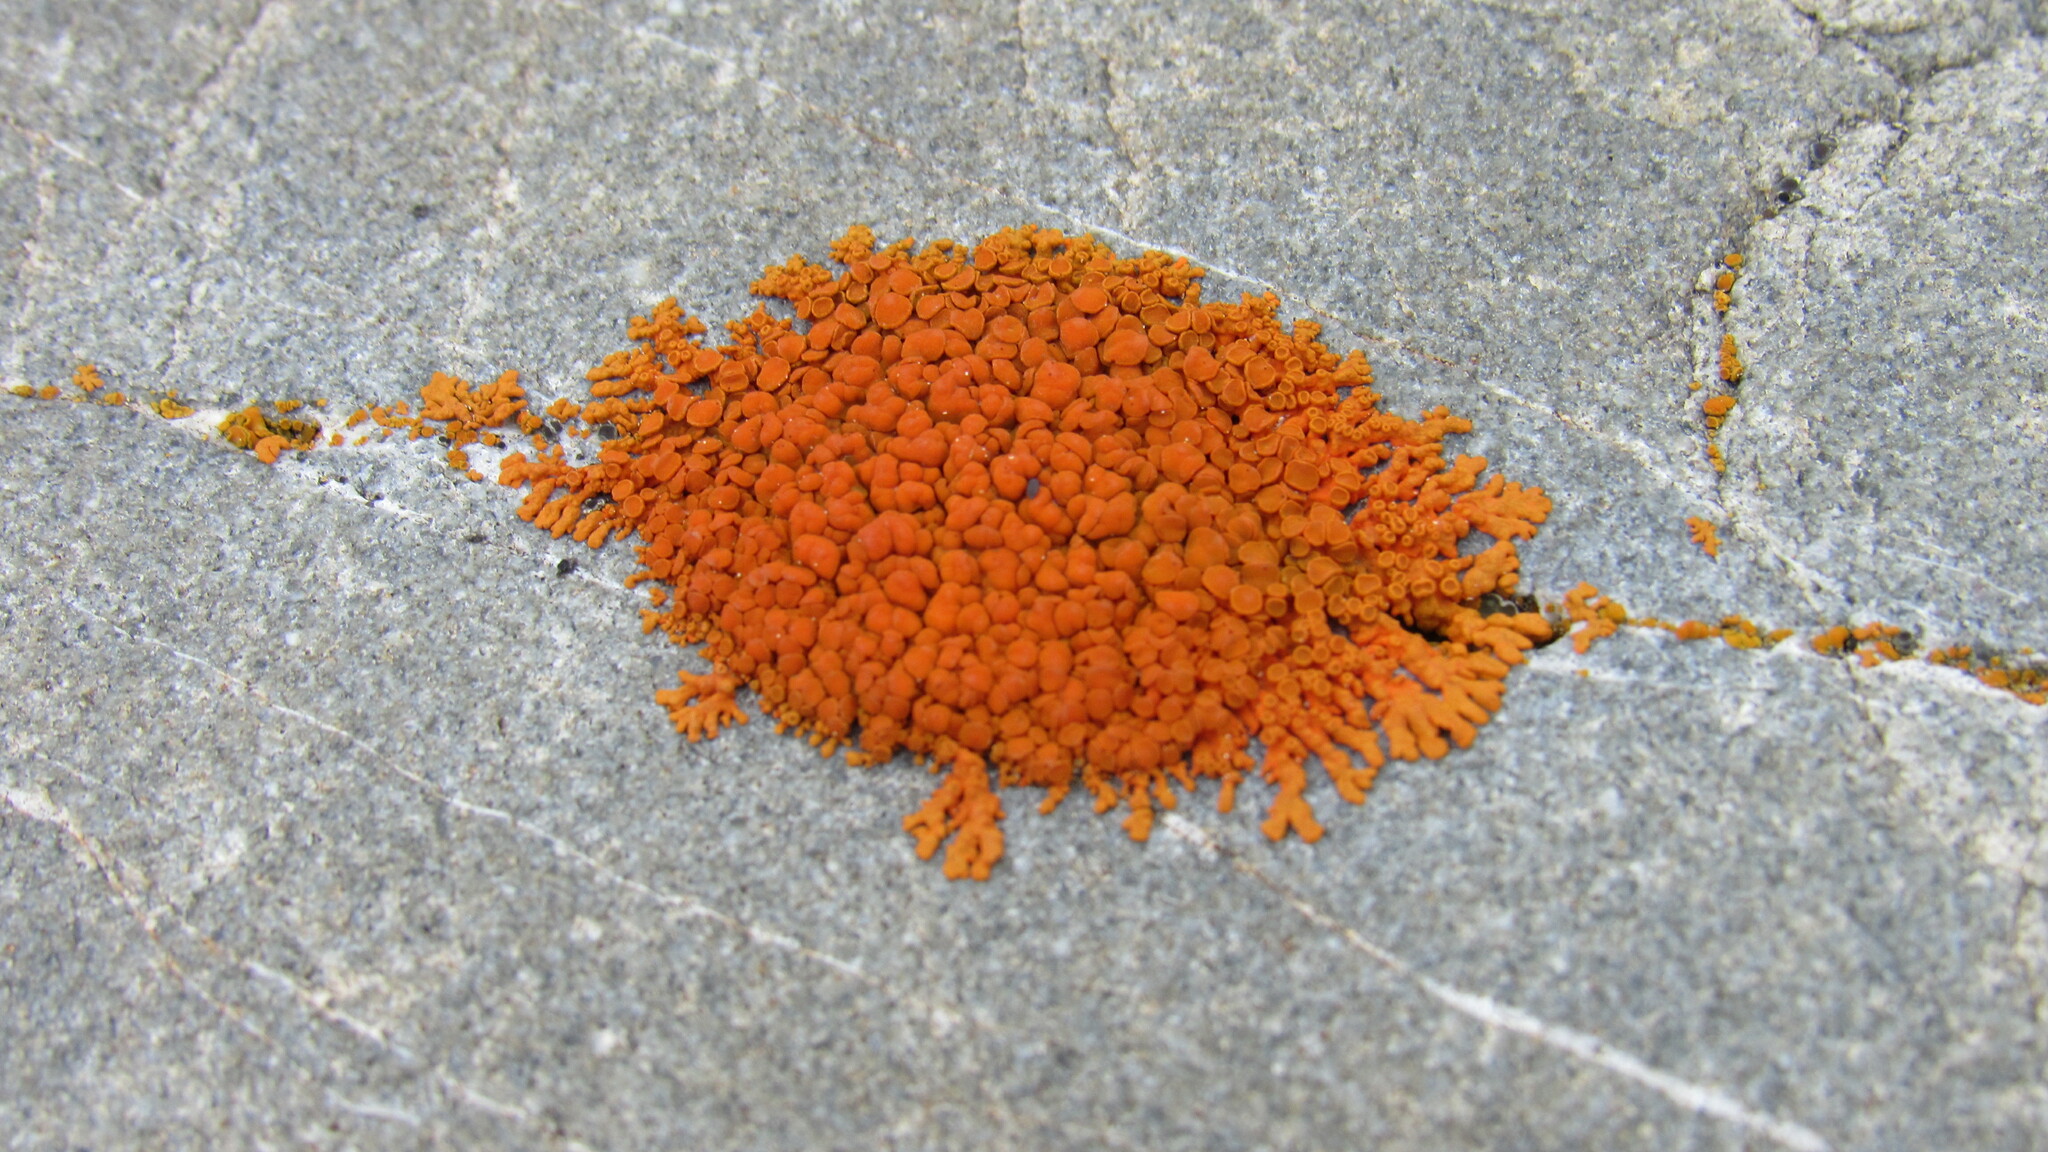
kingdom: Fungi
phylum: Ascomycota
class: Lecanoromycetes
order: Teloschistales
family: Teloschistaceae
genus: Xanthoria
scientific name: Xanthoria elegans
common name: Elegant sunburst lichen
